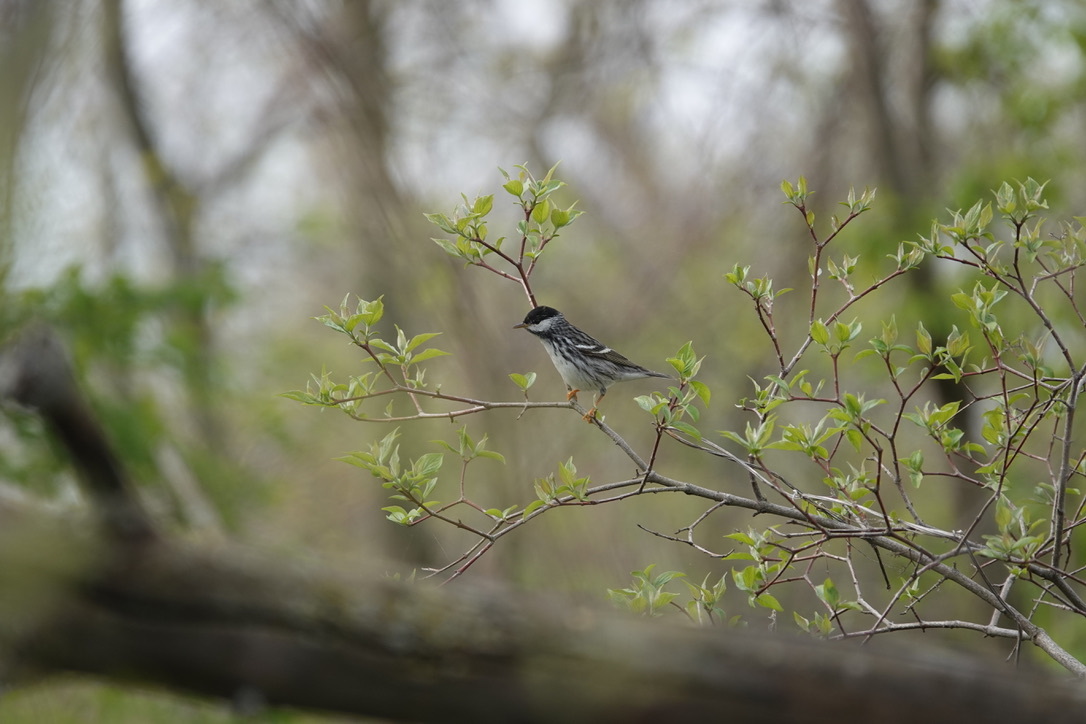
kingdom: Animalia
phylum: Chordata
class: Aves
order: Passeriformes
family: Parulidae
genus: Setophaga
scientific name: Setophaga striata
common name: Blackpoll warbler
